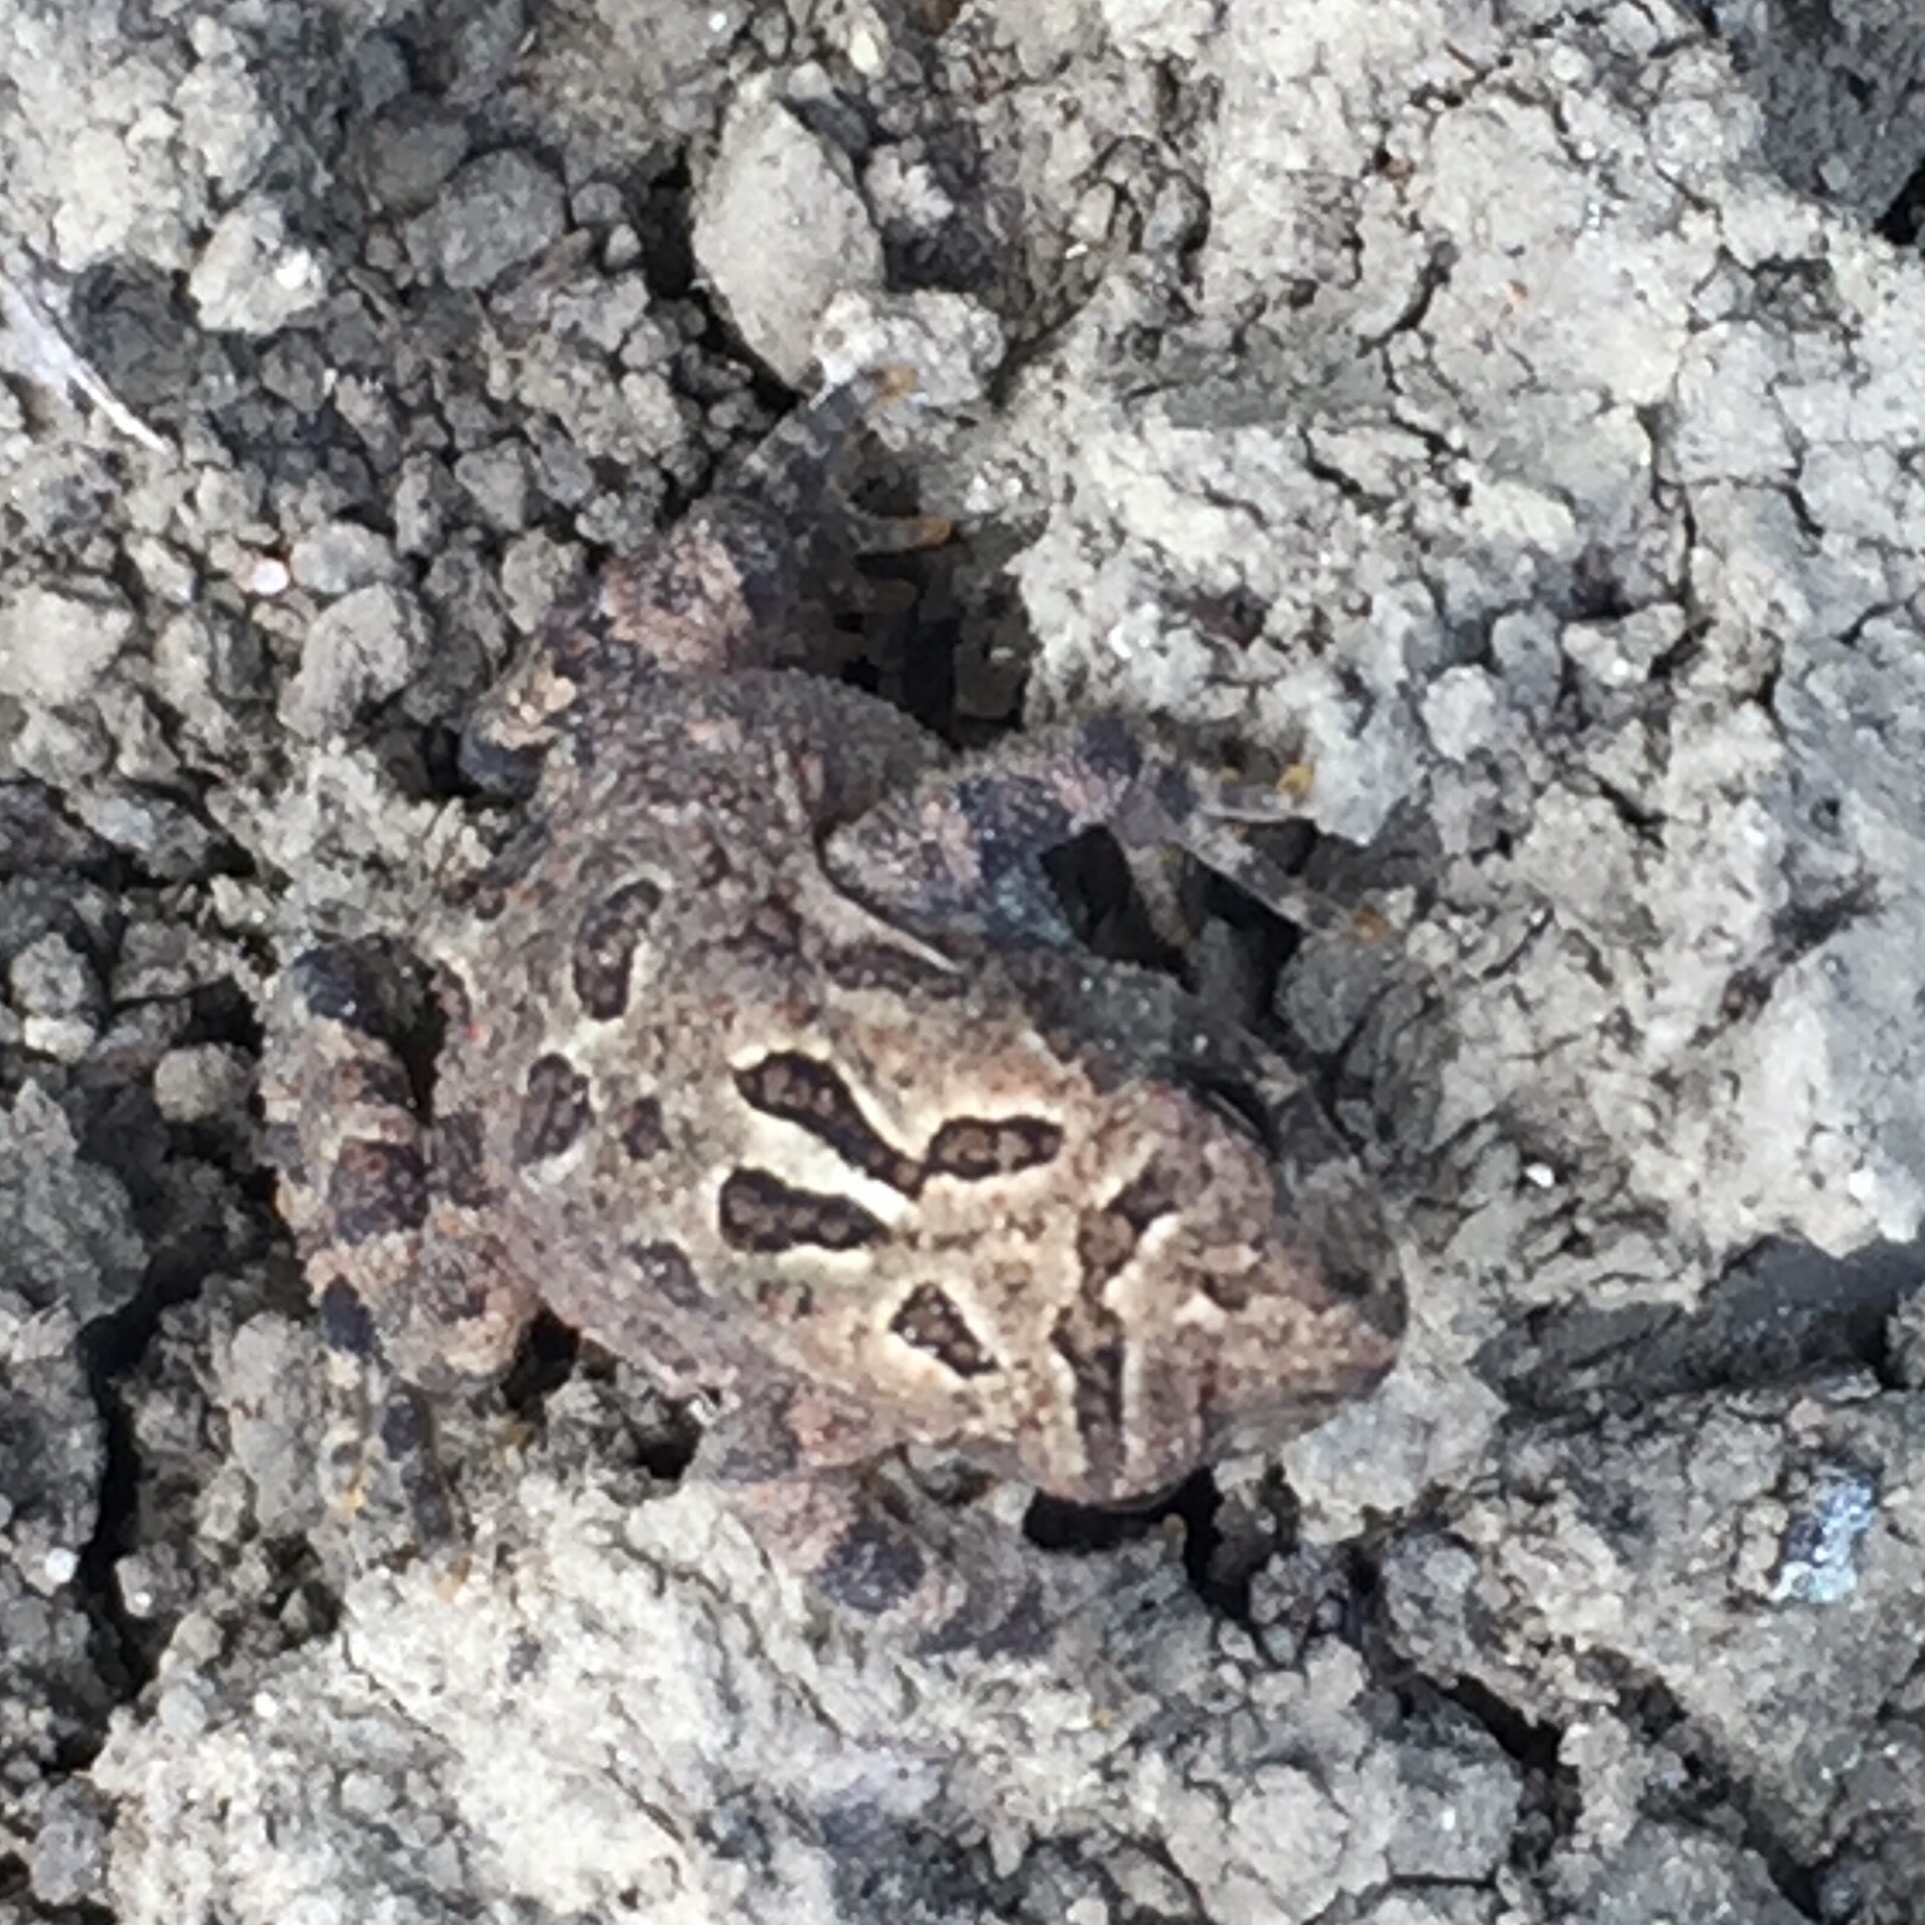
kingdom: Animalia
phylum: Chordata
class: Amphibia
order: Anura
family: Bufonidae
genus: Anaxyrus
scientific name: Anaxyrus americanus
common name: American toad
